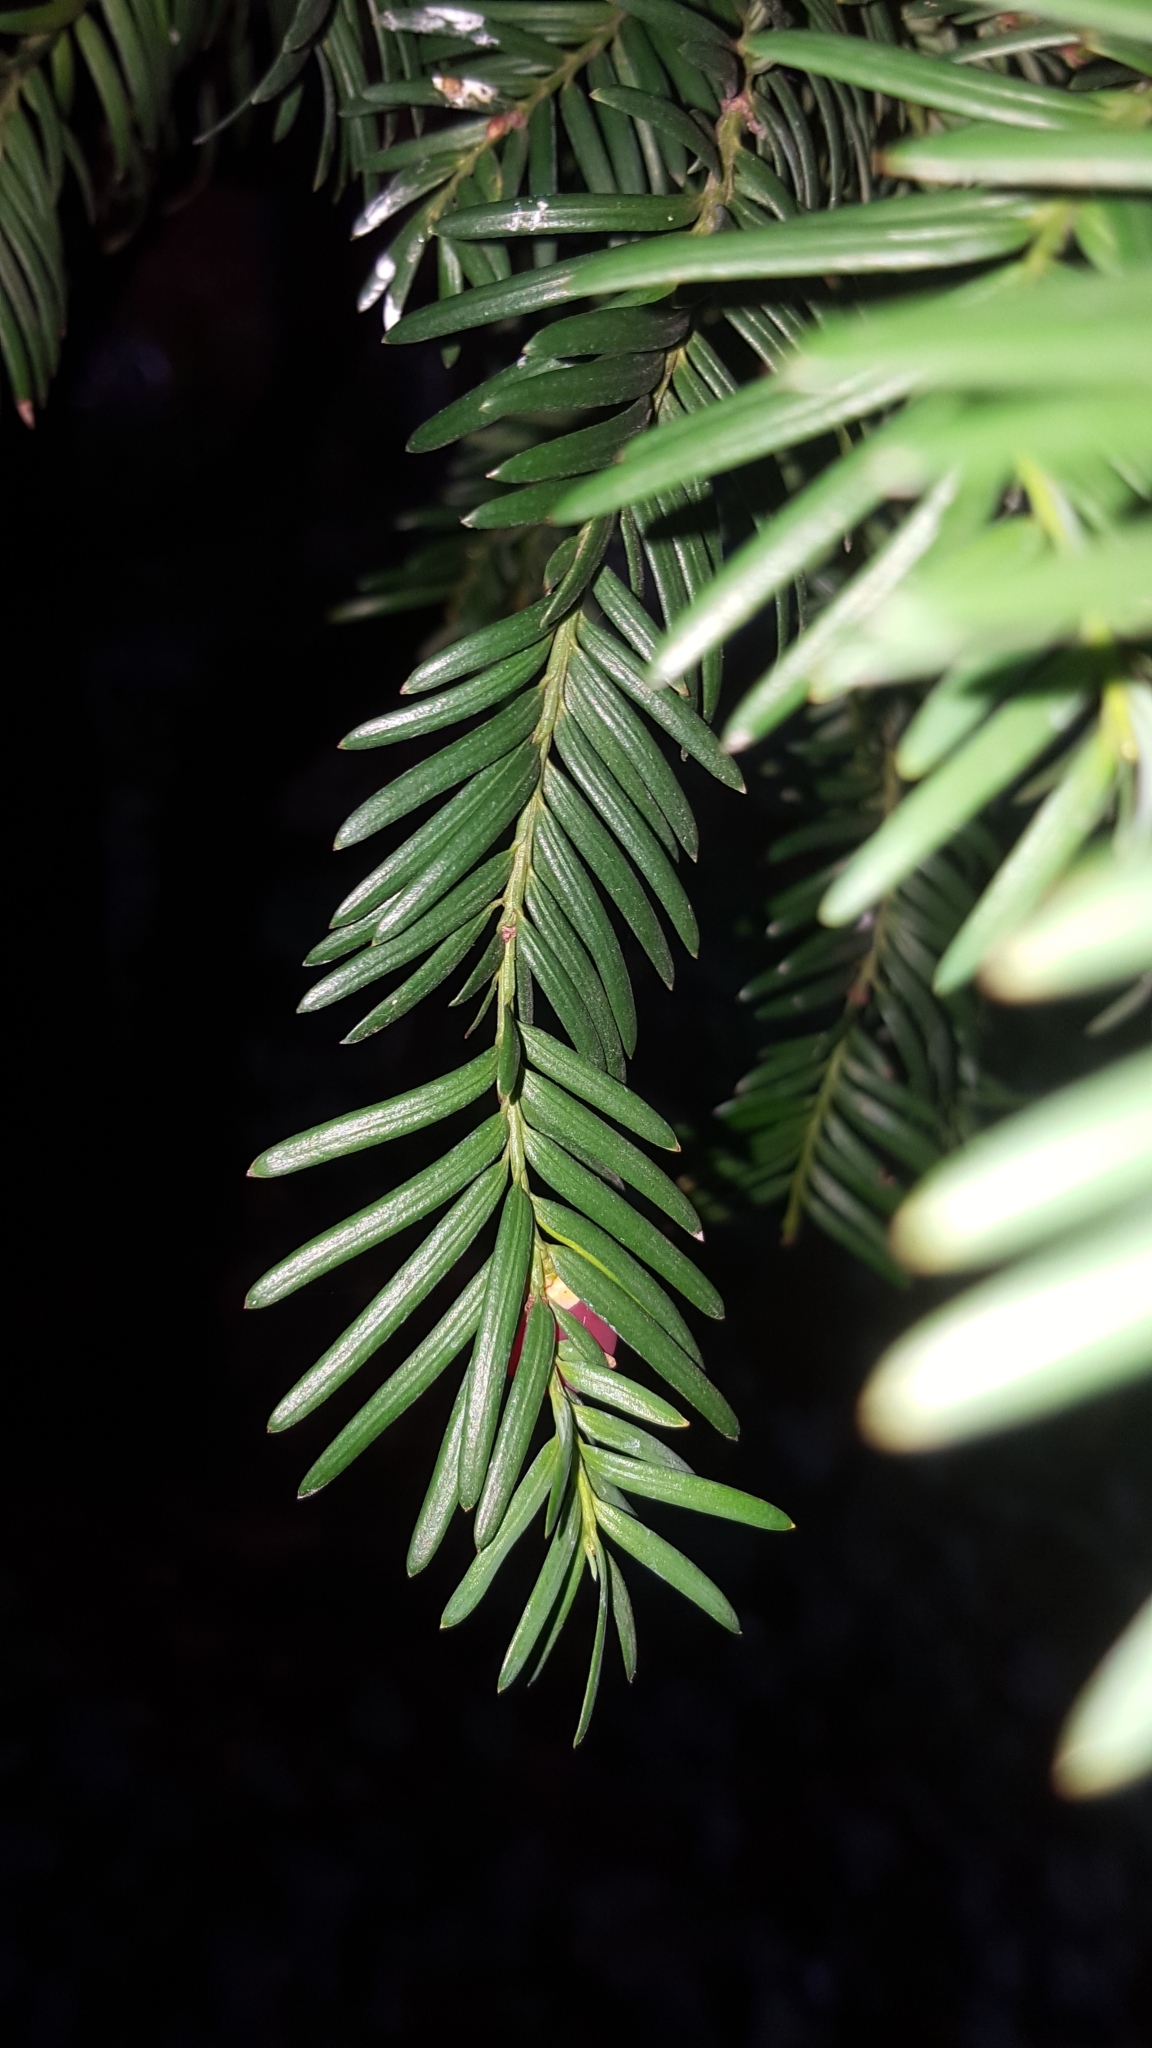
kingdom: Plantae
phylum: Tracheophyta
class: Pinopsida
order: Pinales
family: Taxaceae
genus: Taxus
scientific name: Taxus baccata
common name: Yew
